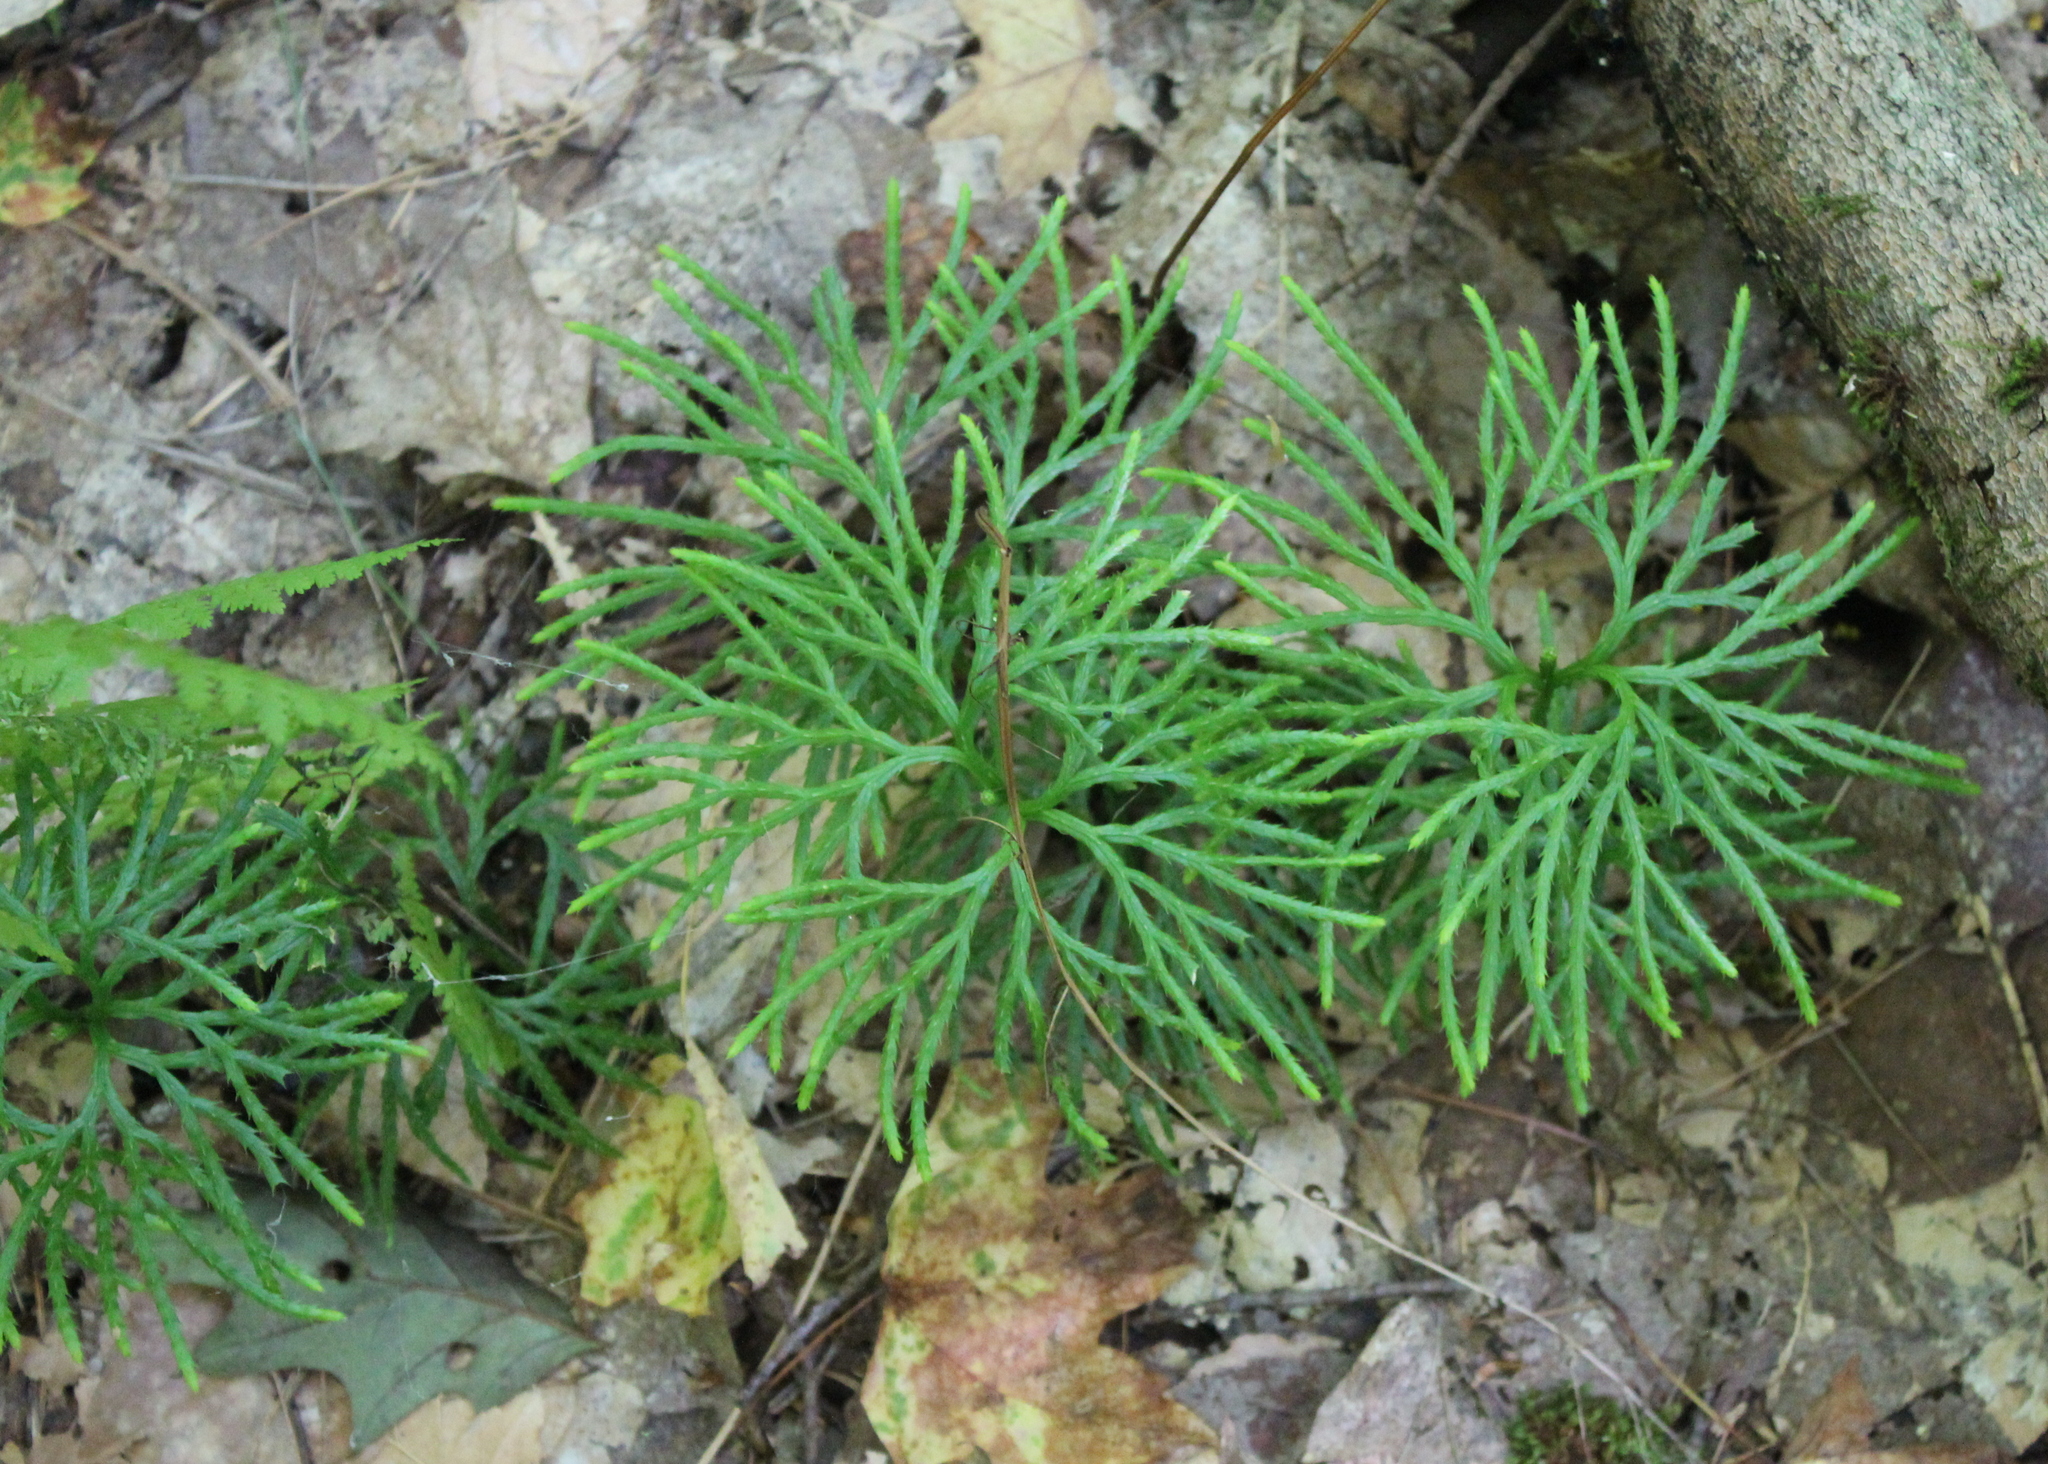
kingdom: Plantae
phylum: Tracheophyta
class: Lycopodiopsida
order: Lycopodiales
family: Lycopodiaceae
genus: Diphasiastrum
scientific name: Diphasiastrum digitatum
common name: Southern running-pine
